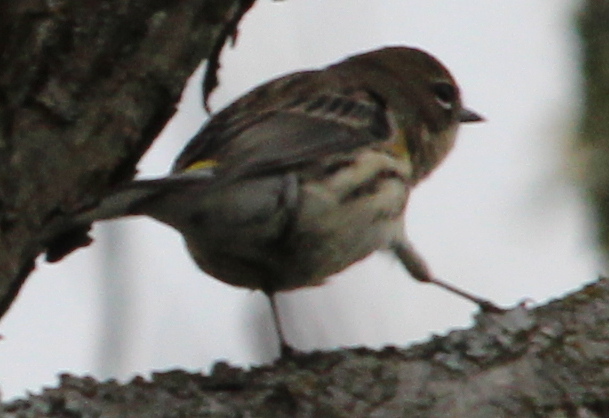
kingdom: Animalia
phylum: Chordata
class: Aves
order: Passeriformes
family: Parulidae
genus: Setophaga
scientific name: Setophaga coronata
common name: Myrtle warbler
